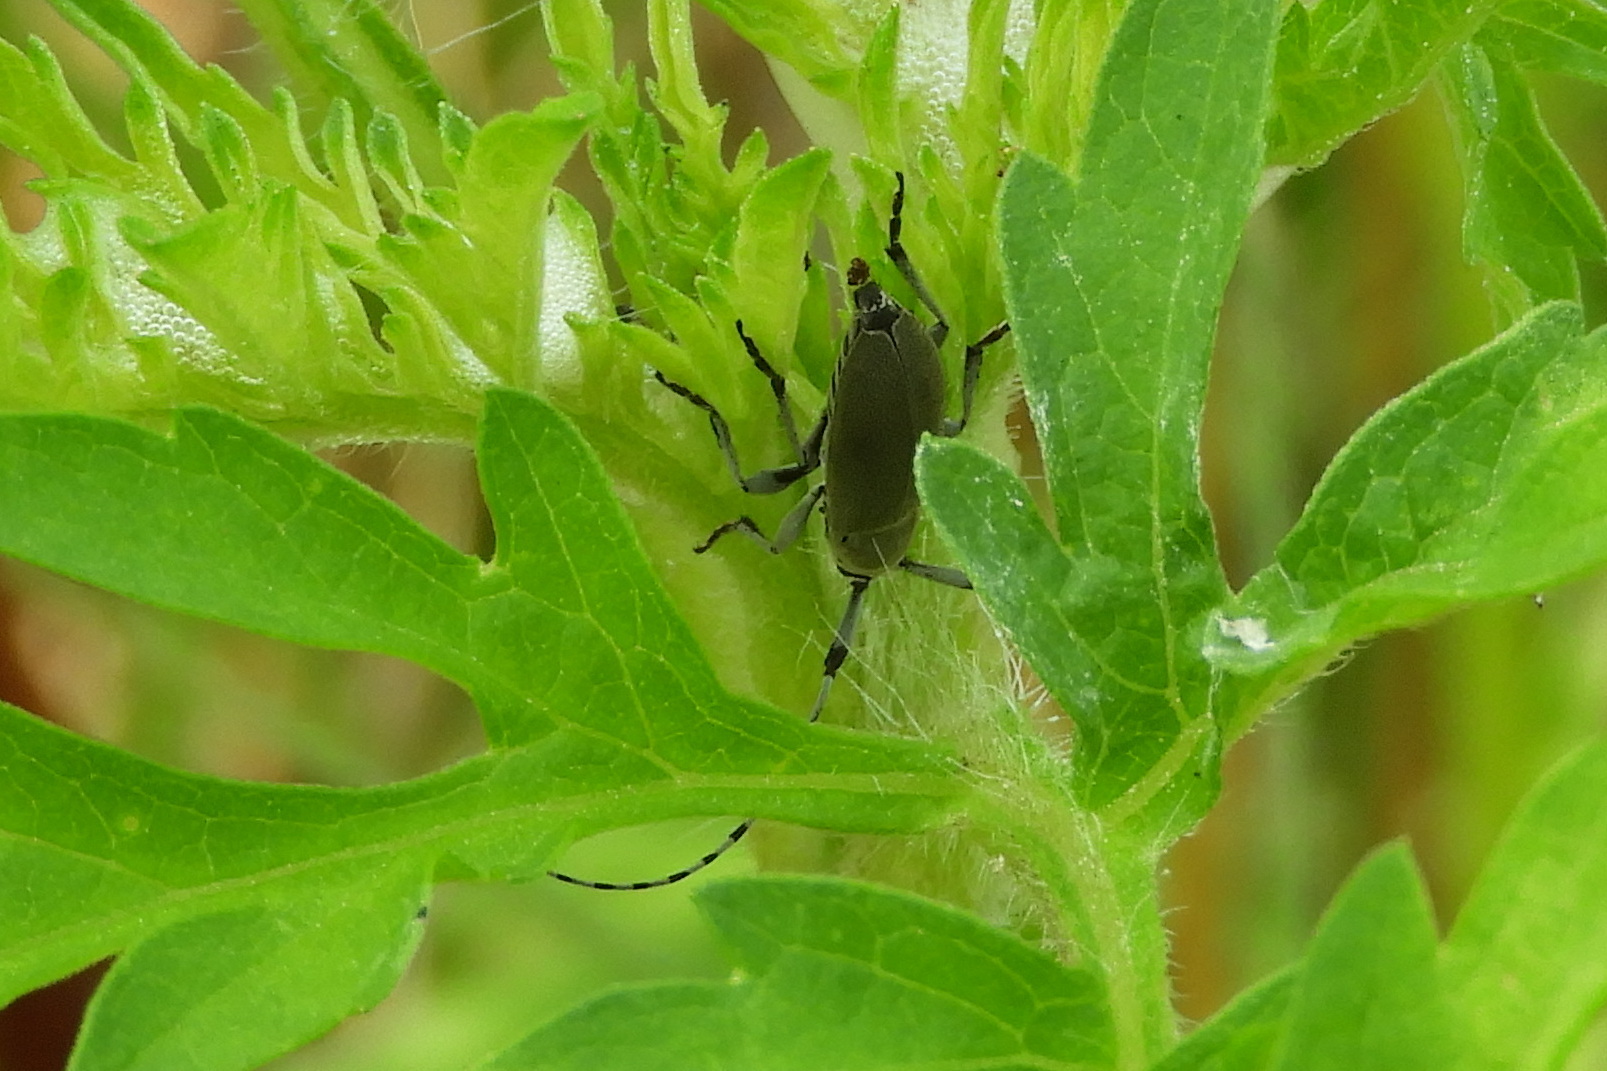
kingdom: Animalia
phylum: Arthropoda
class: Insecta
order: Coleoptera
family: Cerambycidae
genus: Dectes
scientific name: Dectes texanus
